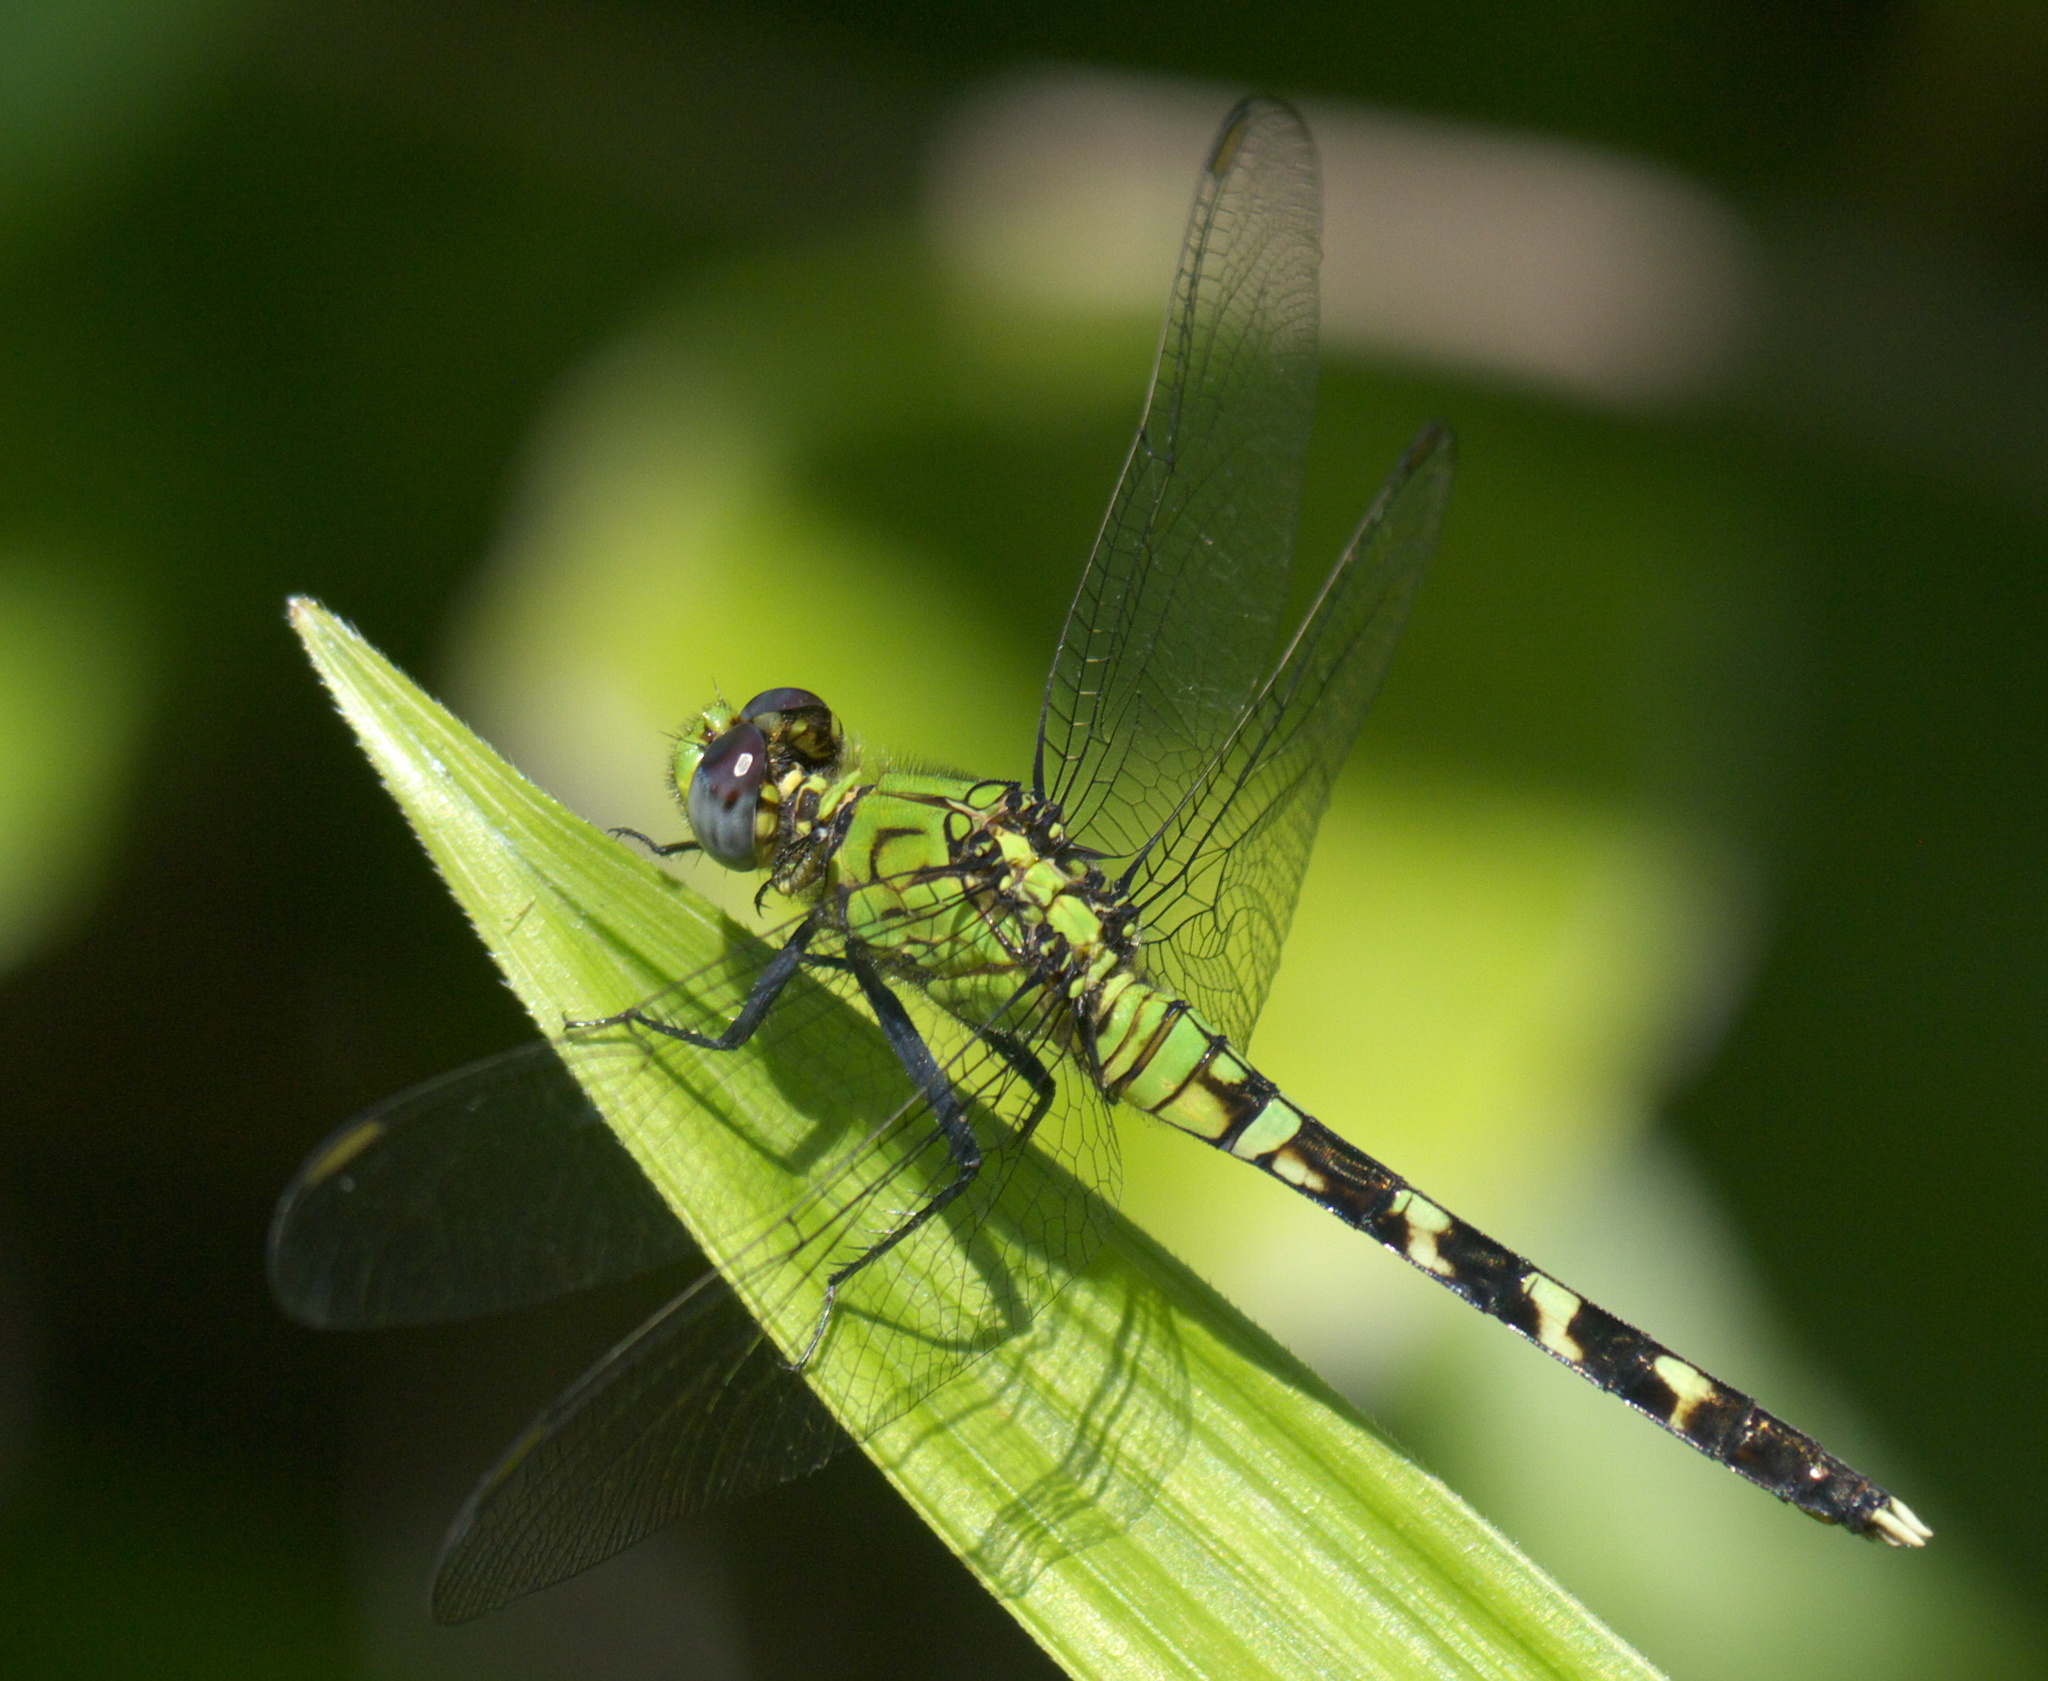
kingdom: Animalia
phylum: Arthropoda
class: Insecta
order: Odonata
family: Libellulidae
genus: Erythemis
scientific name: Erythemis simplicicollis
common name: Eastern pondhawk
